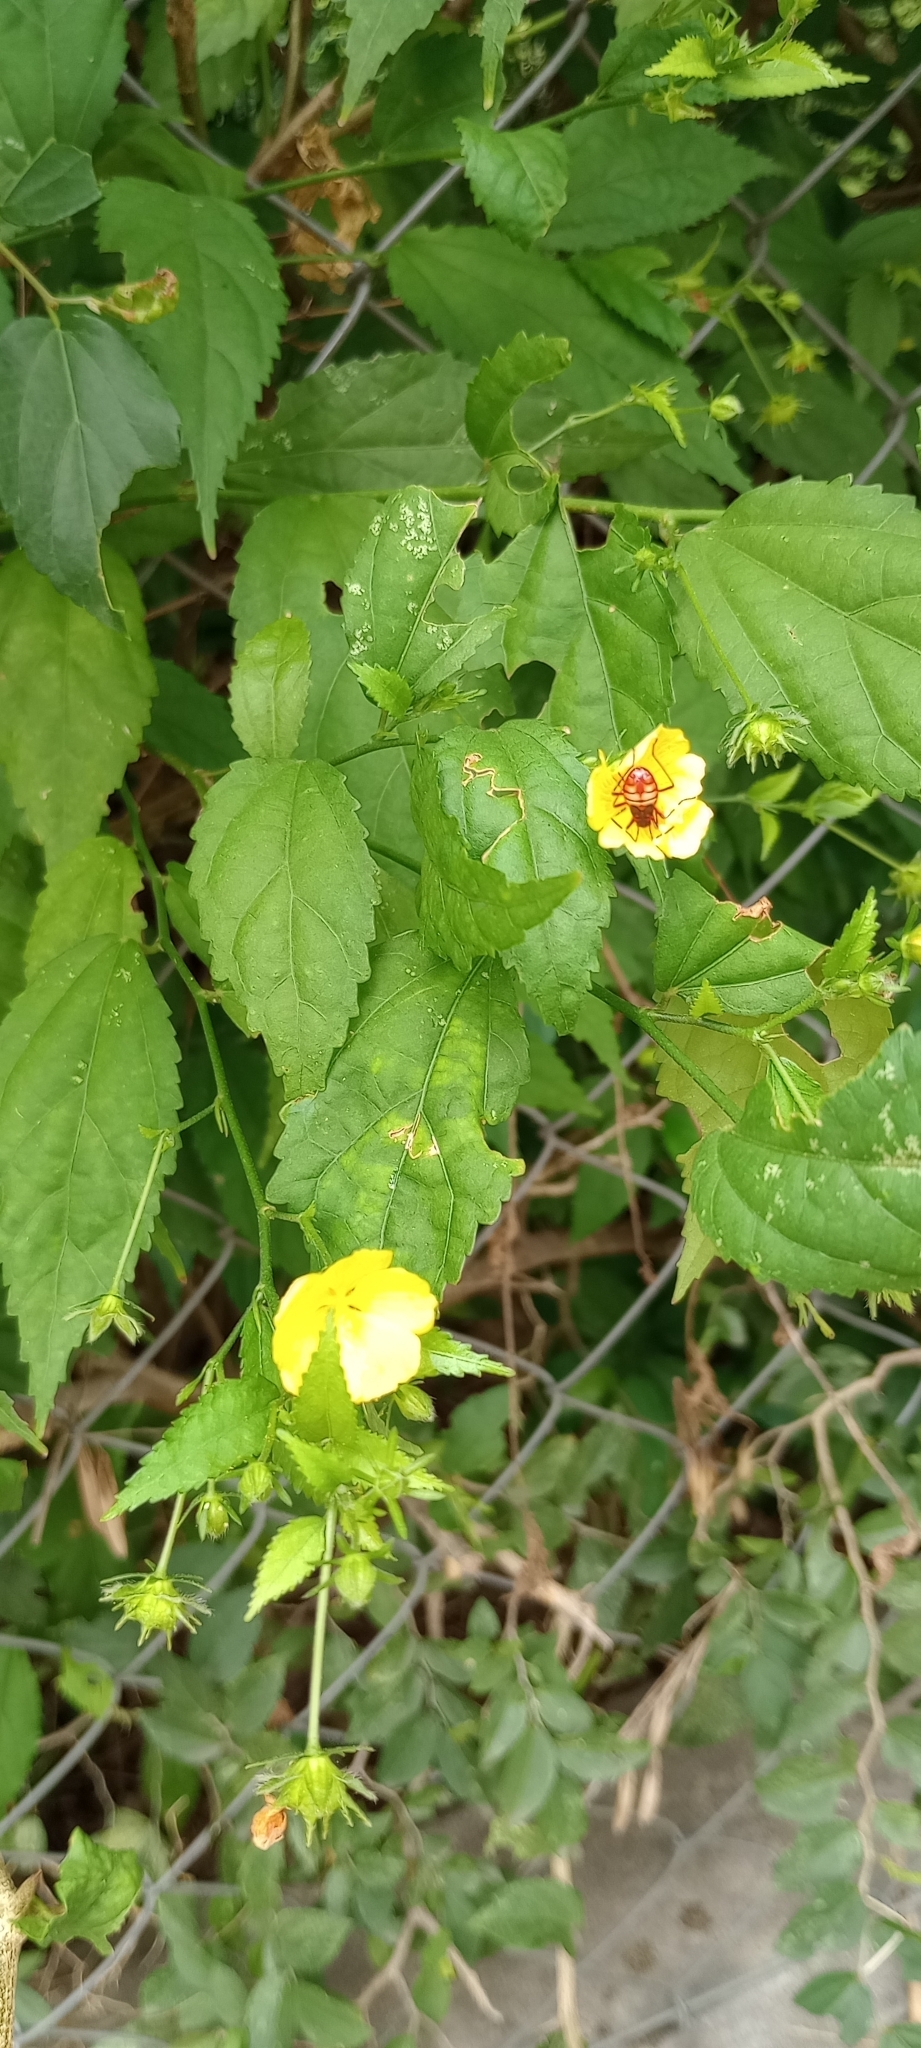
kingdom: Plantae
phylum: Tracheophyta
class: Magnoliopsida
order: Malvales
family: Malvaceae
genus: Pavonia
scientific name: Pavonia sepium
